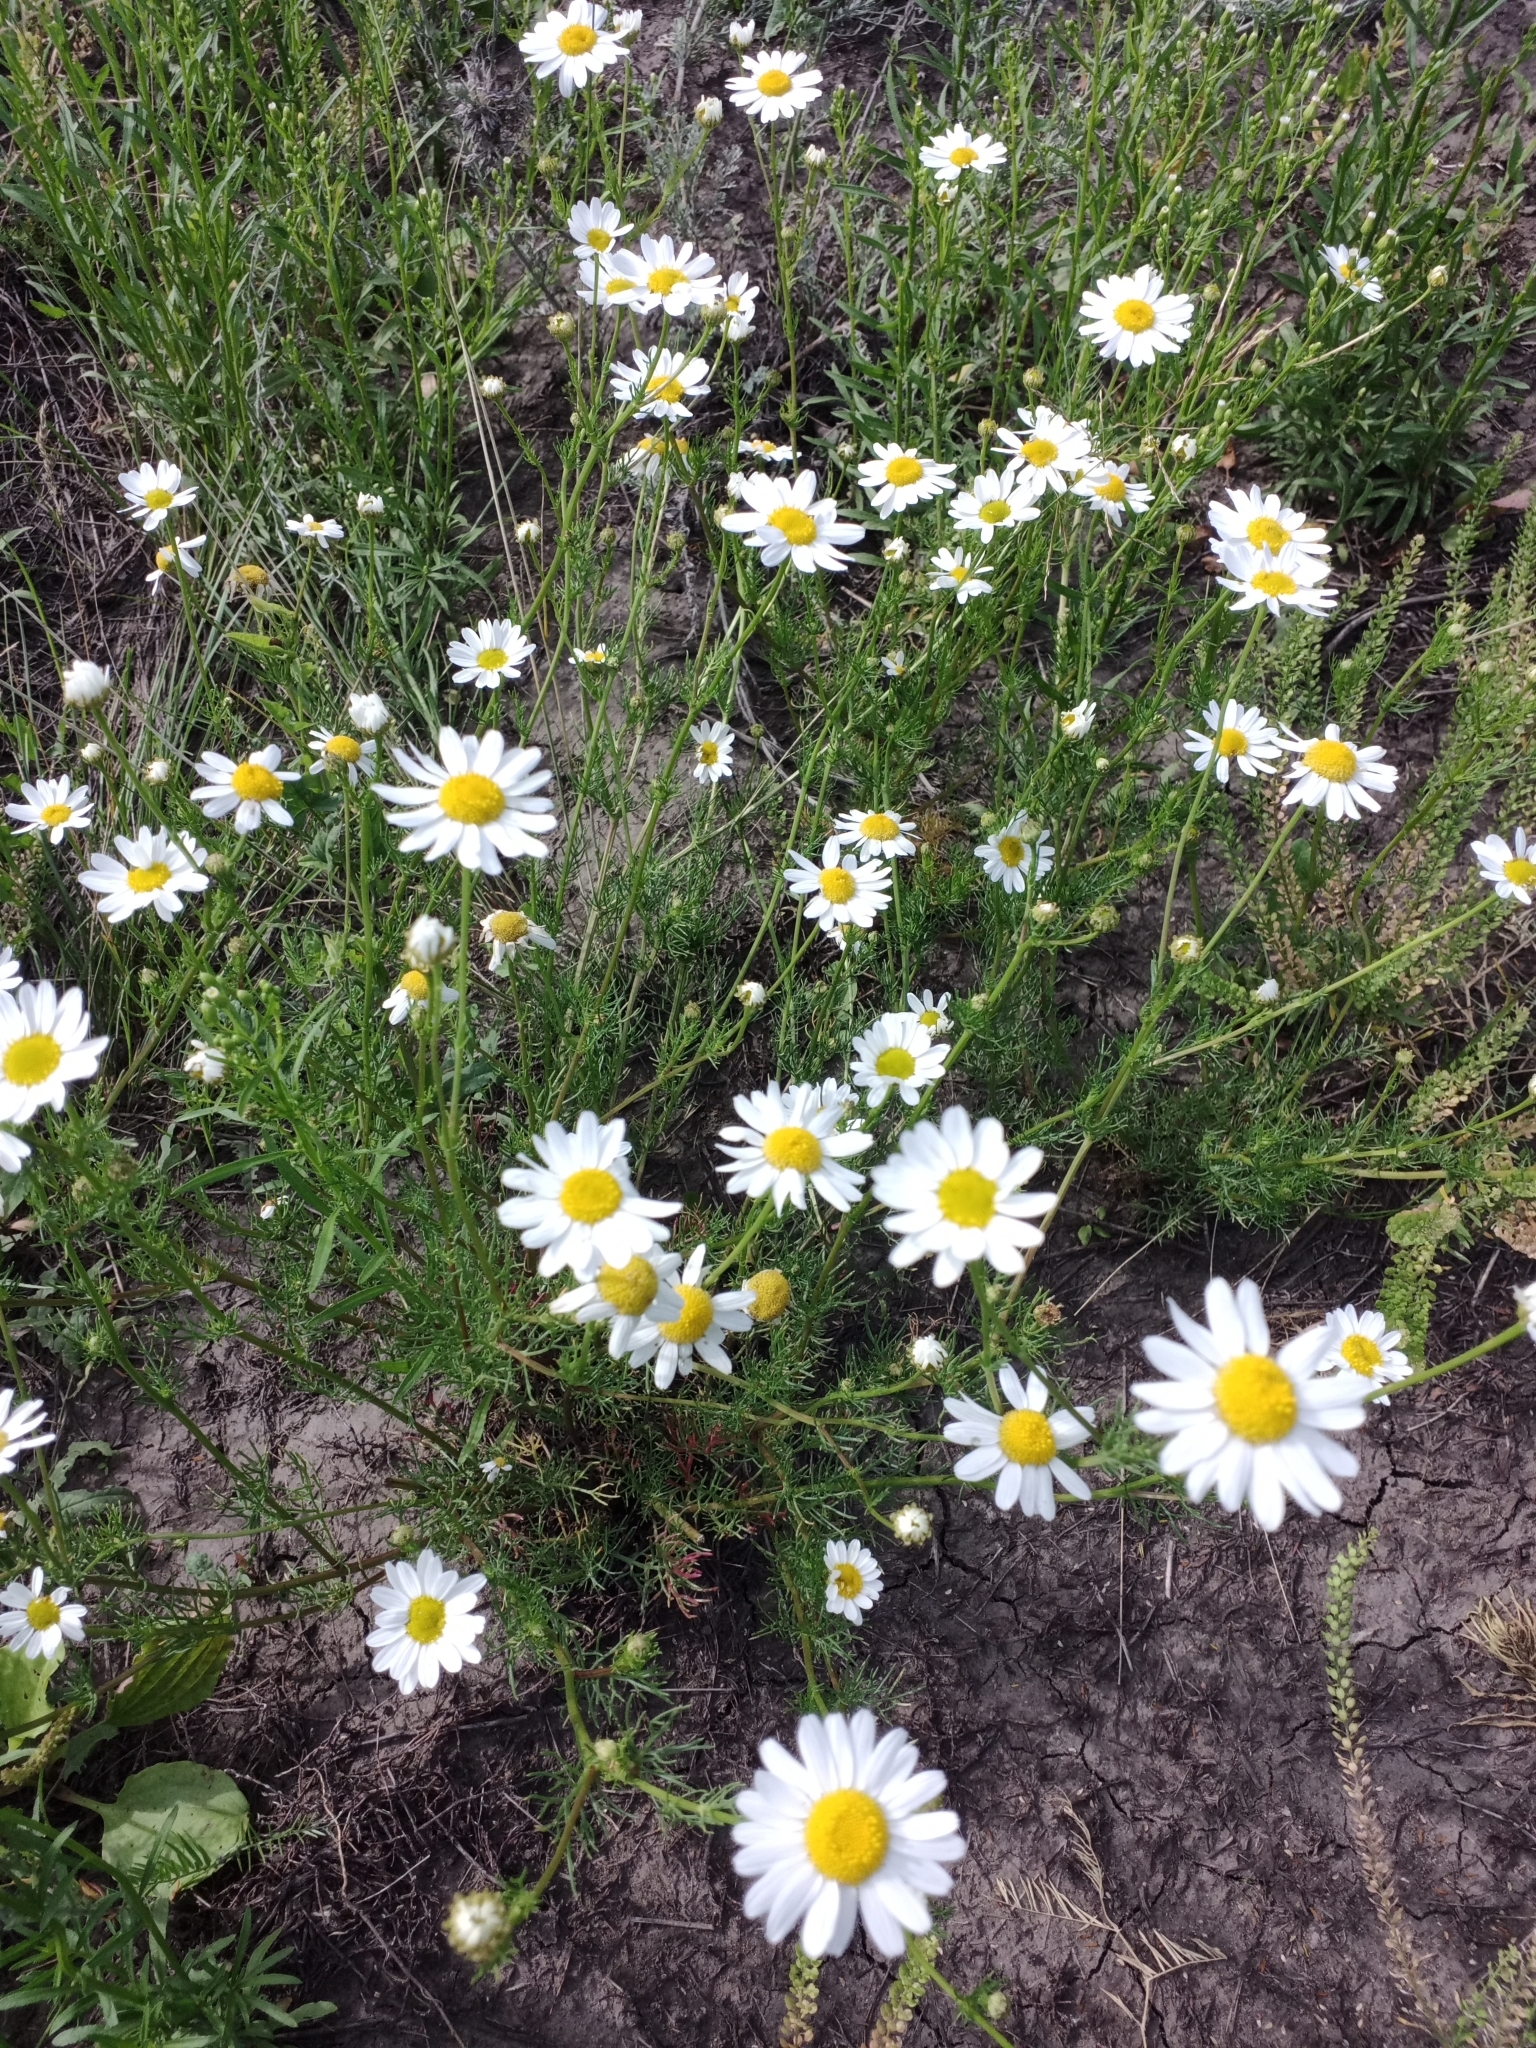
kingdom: Plantae
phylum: Tracheophyta
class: Magnoliopsida
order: Asterales
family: Asteraceae
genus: Tripleurospermum
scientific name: Tripleurospermum inodorum
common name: Scentless mayweed
